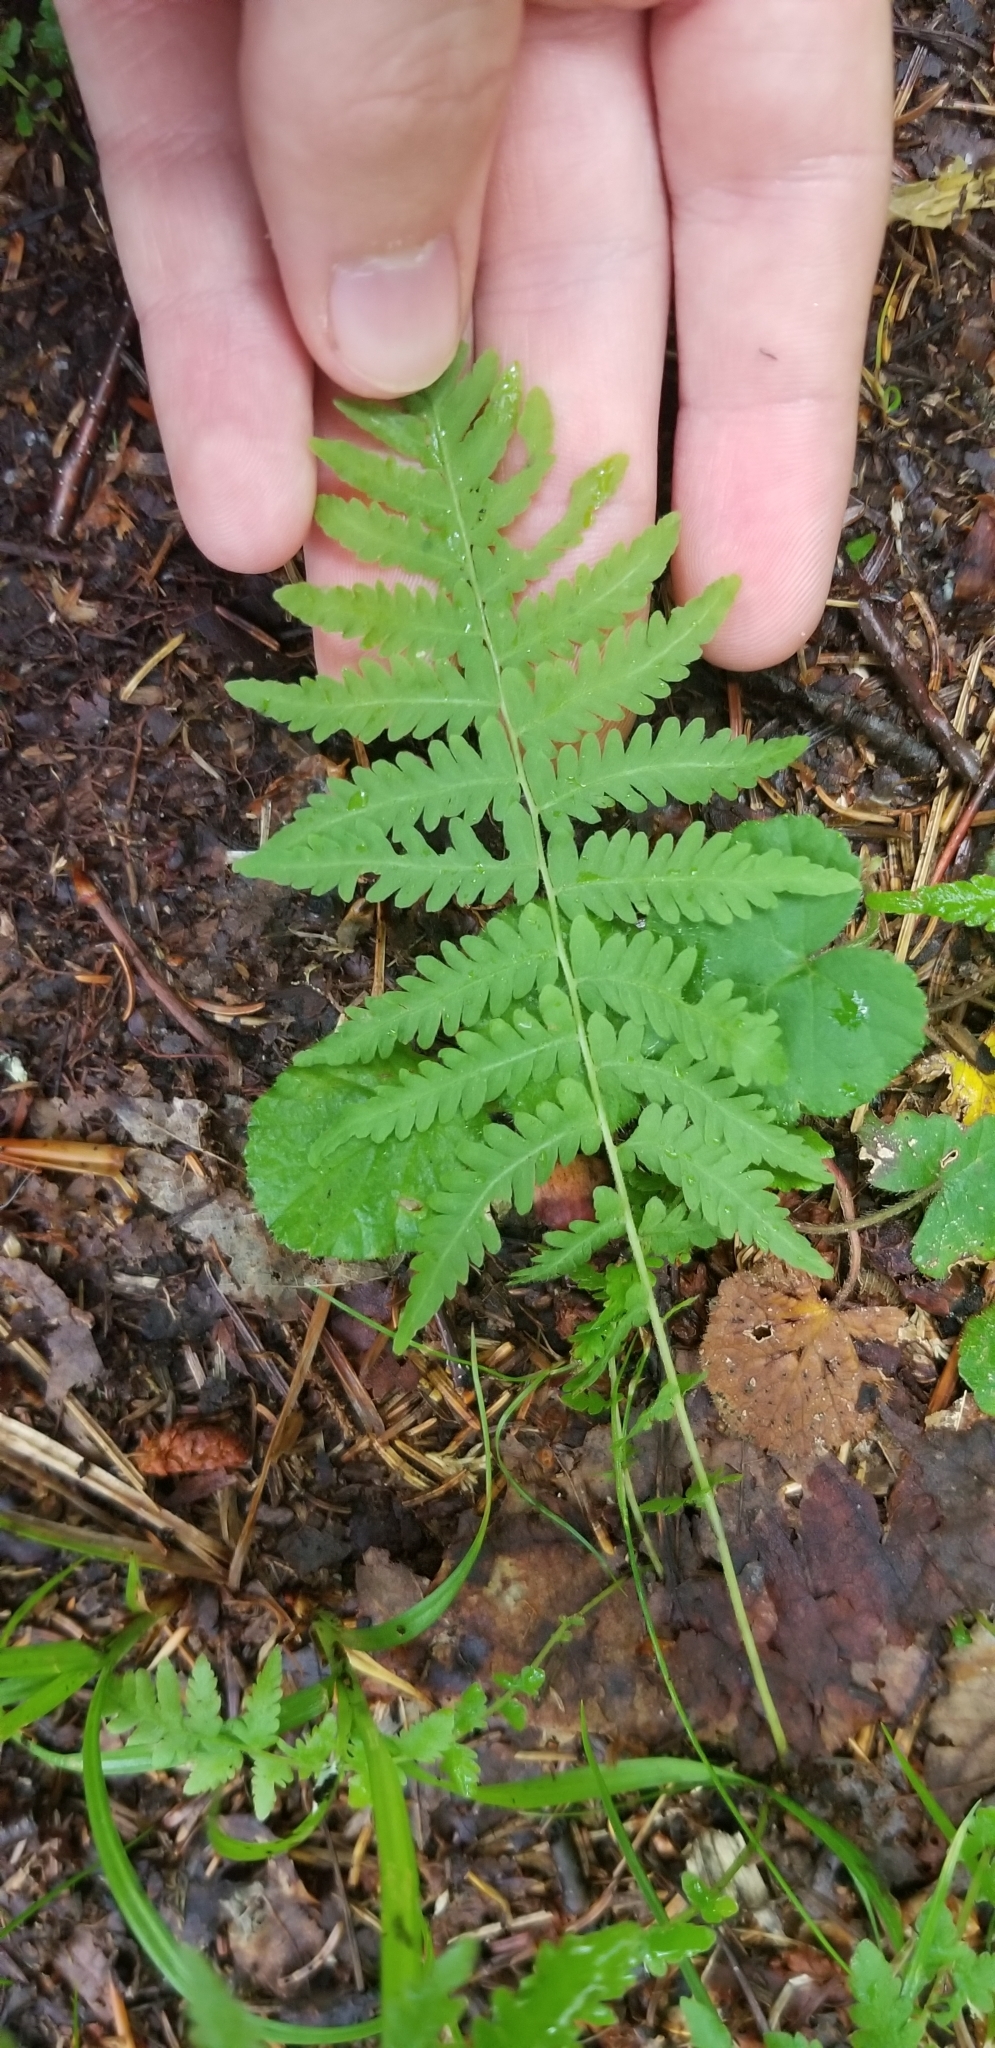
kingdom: Plantae
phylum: Tracheophyta
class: Polypodiopsida
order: Polypodiales
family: Thelypteridaceae
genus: Amauropelta
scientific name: Amauropelta noveboracensis
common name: New york fern
